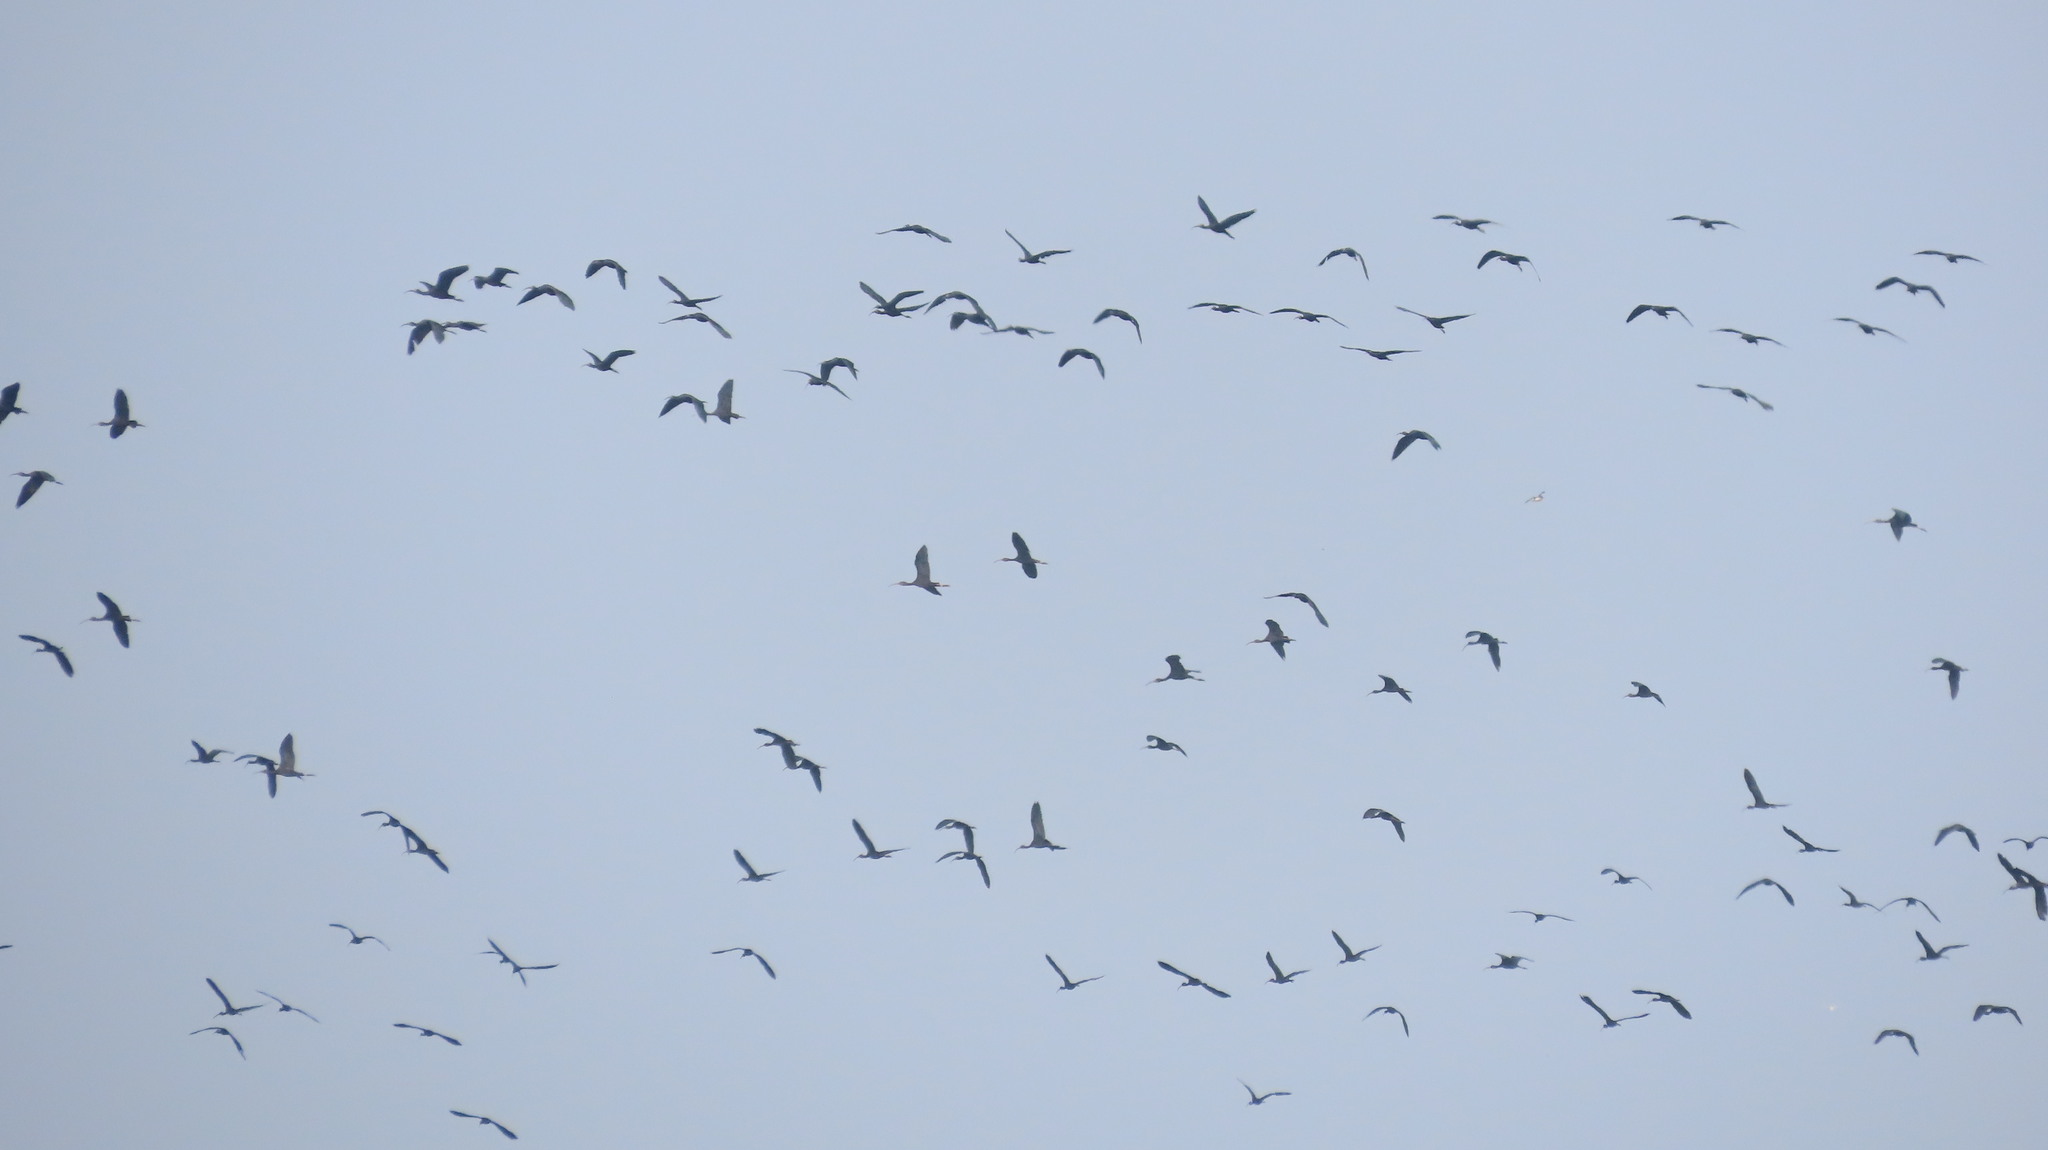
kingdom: Animalia
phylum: Chordata
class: Aves
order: Pelecaniformes
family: Threskiornithidae
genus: Plegadis
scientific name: Plegadis falcinellus
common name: Glossy ibis
